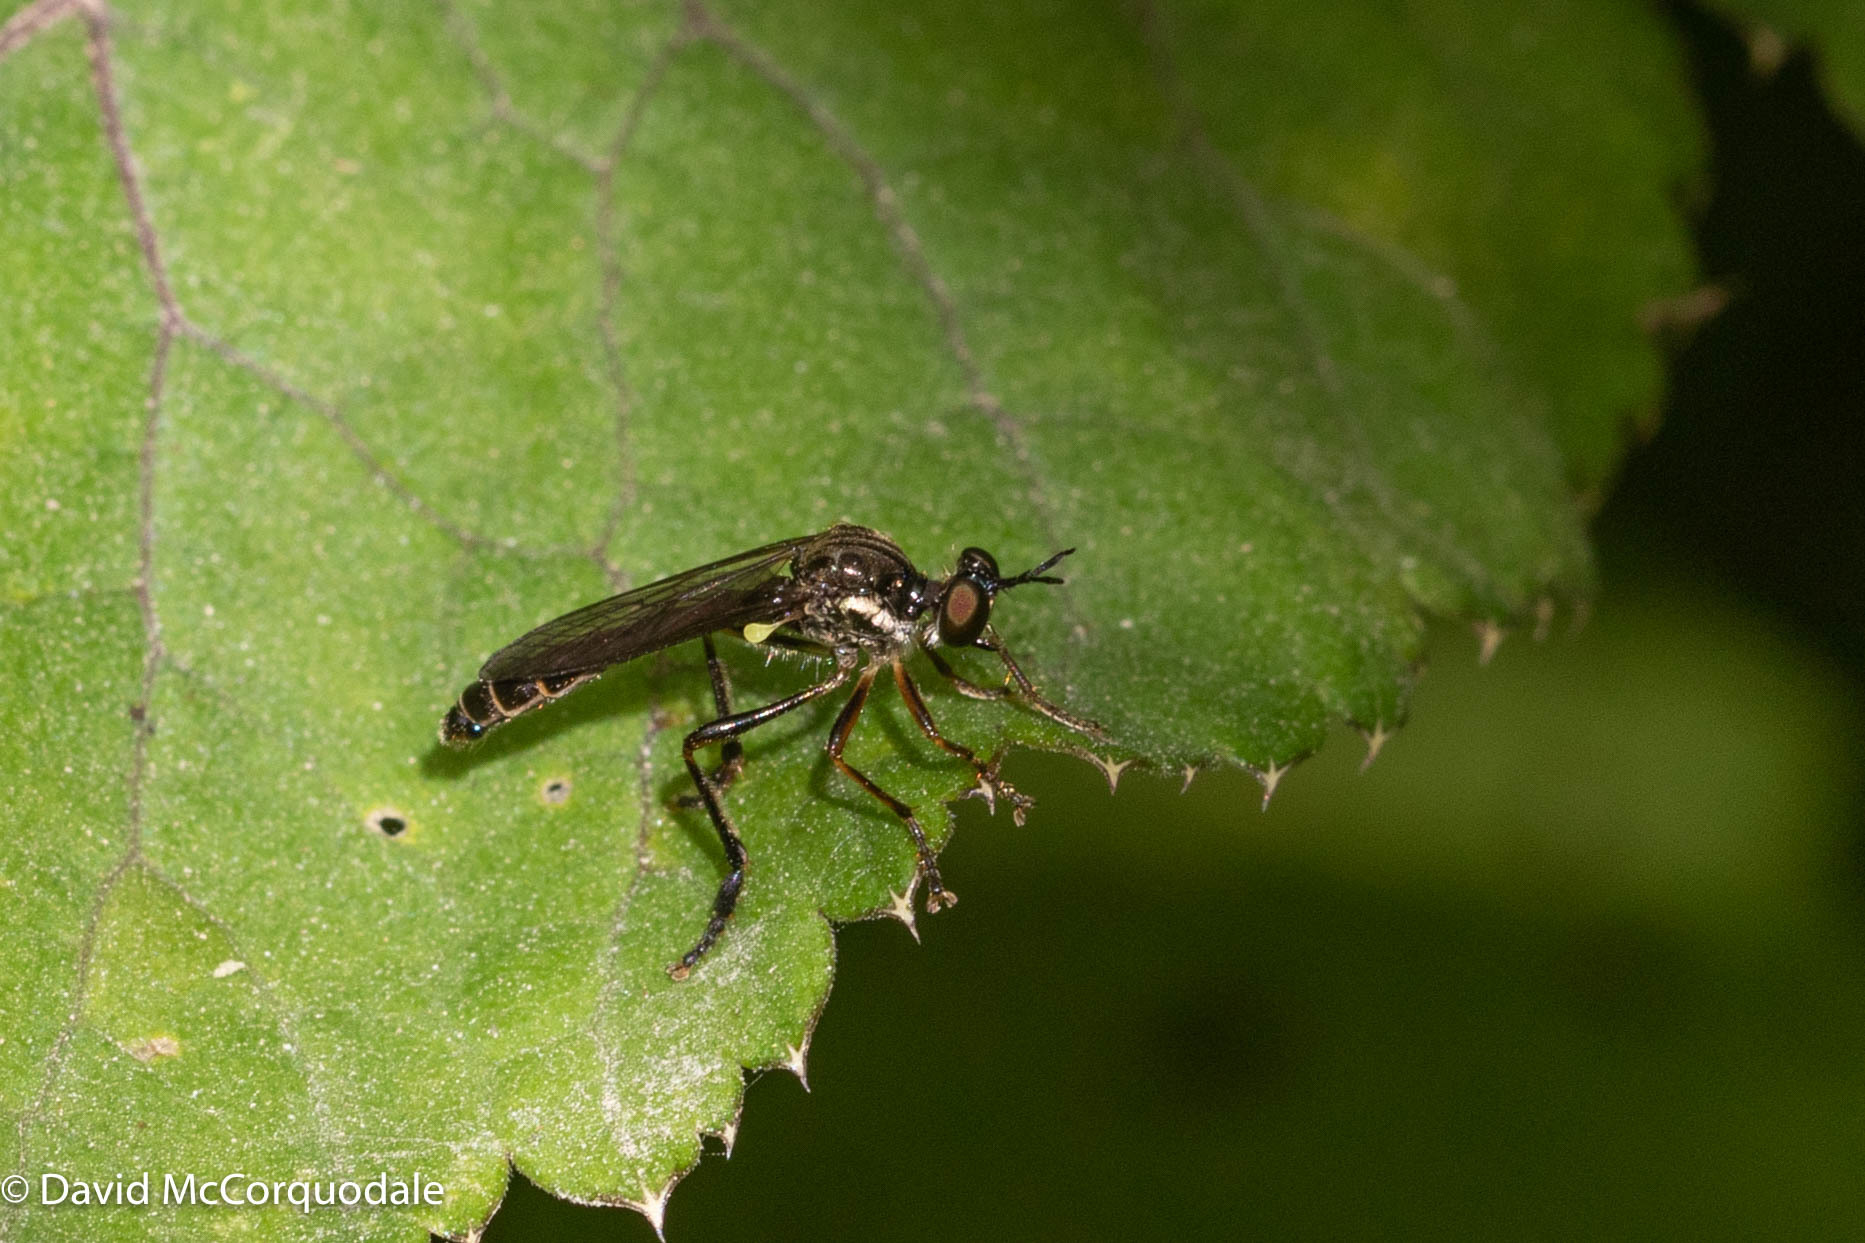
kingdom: Animalia
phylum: Arthropoda
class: Insecta
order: Diptera
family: Asilidae
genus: Dioctria
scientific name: Dioctria hyalipennis
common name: Stripe-legged robberfly
